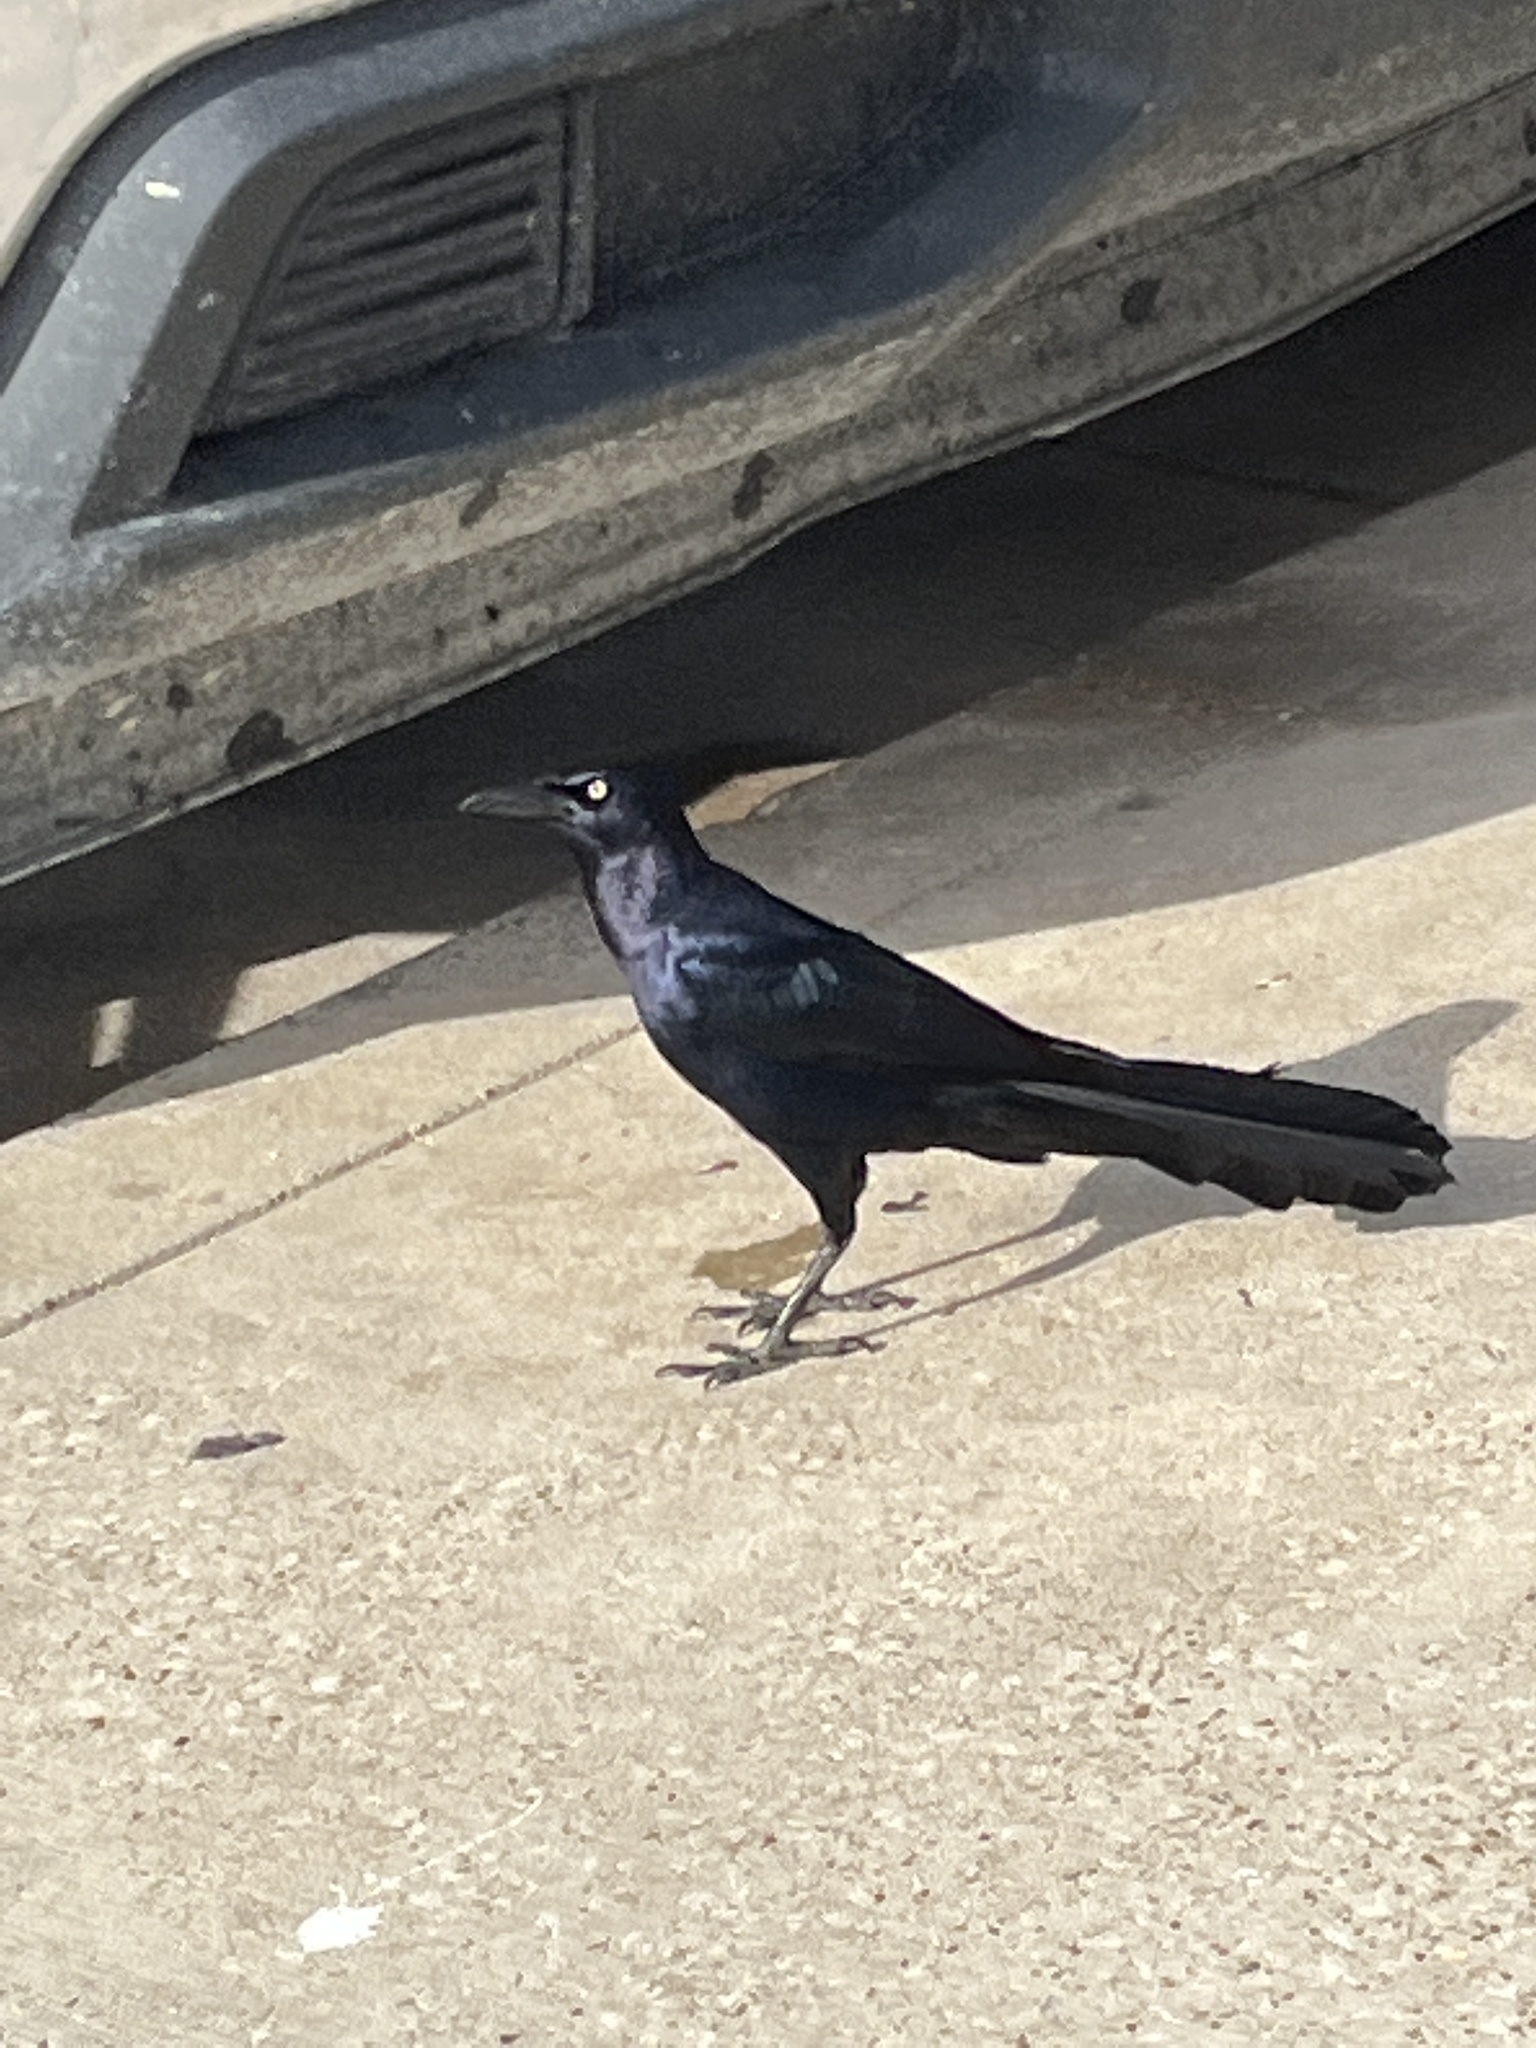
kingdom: Animalia
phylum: Chordata
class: Aves
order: Passeriformes
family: Icteridae
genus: Quiscalus
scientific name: Quiscalus mexicanus
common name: Great-tailed grackle
